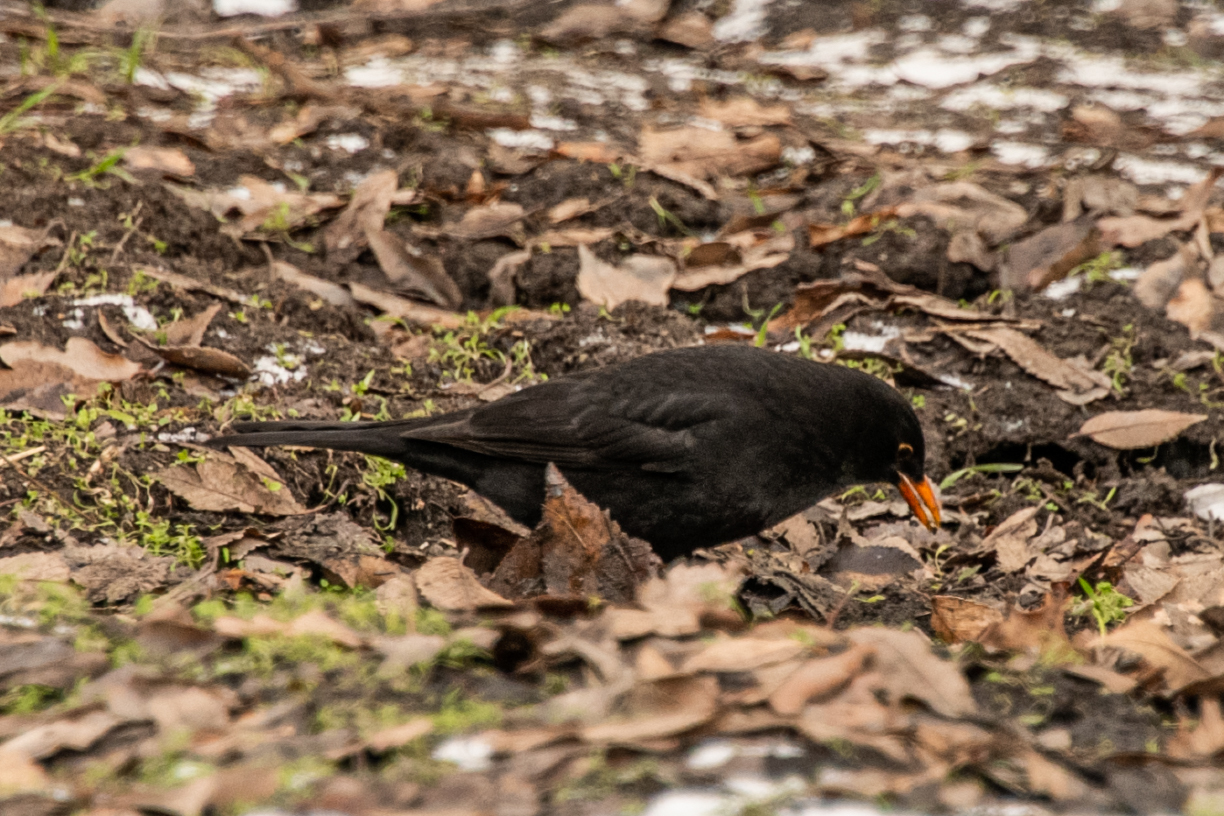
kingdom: Animalia
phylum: Chordata
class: Aves
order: Passeriformes
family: Turdidae
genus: Turdus
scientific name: Turdus merula
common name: Common blackbird
